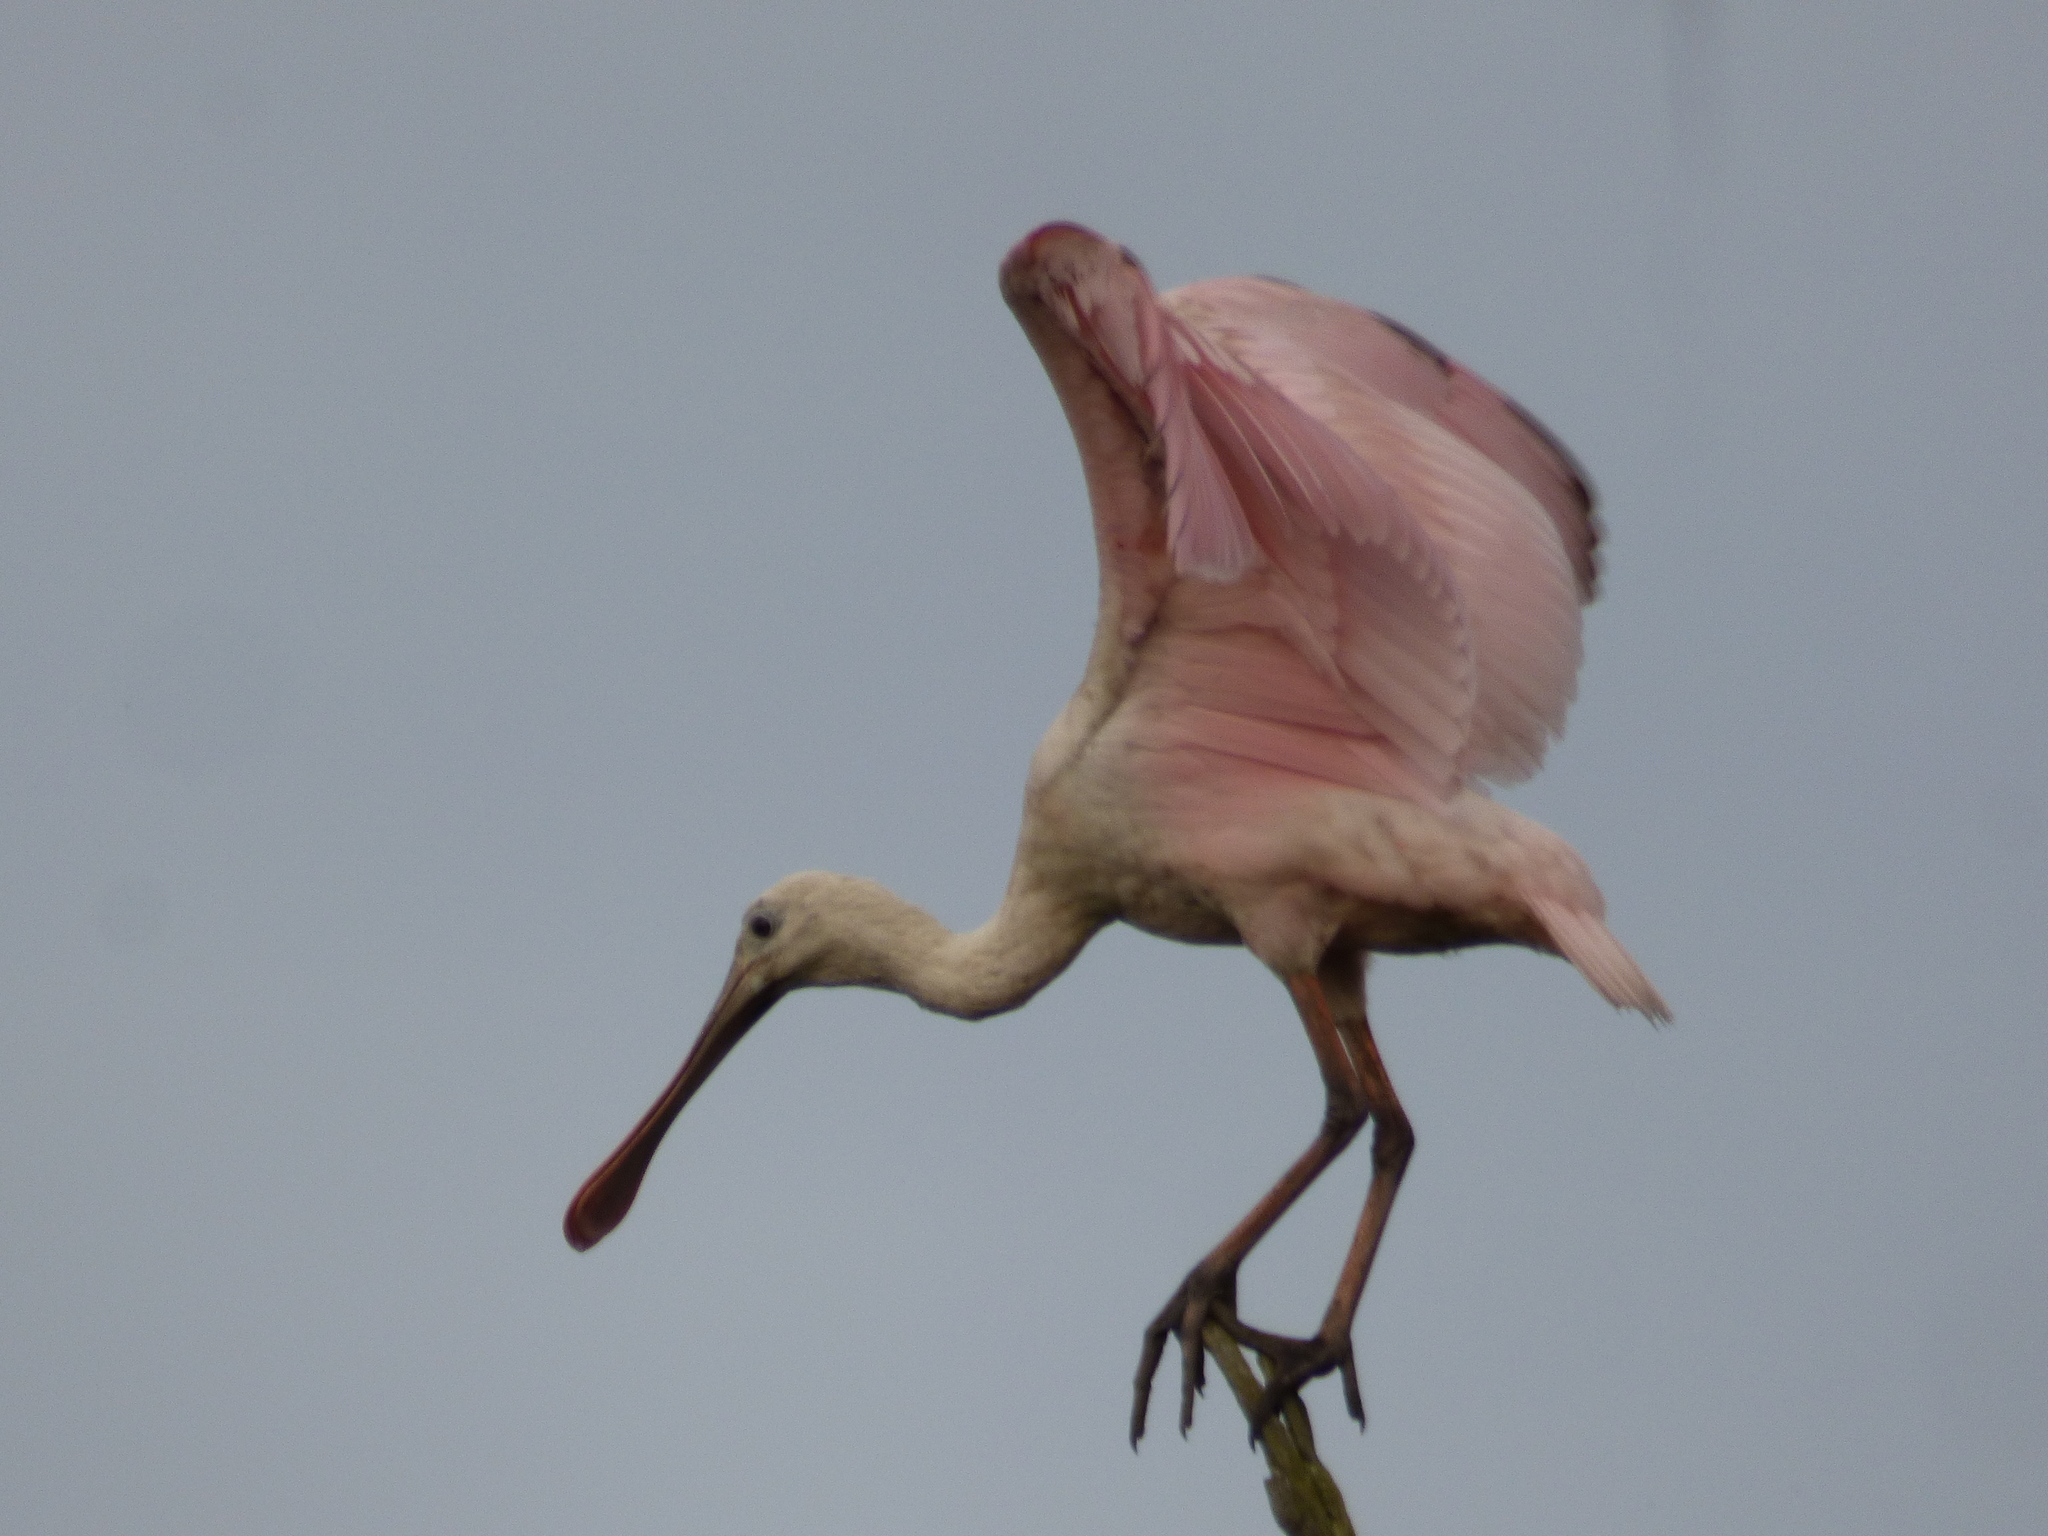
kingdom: Animalia
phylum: Chordata
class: Aves
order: Pelecaniformes
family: Threskiornithidae
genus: Platalea
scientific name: Platalea ajaja
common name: Roseate spoonbill
